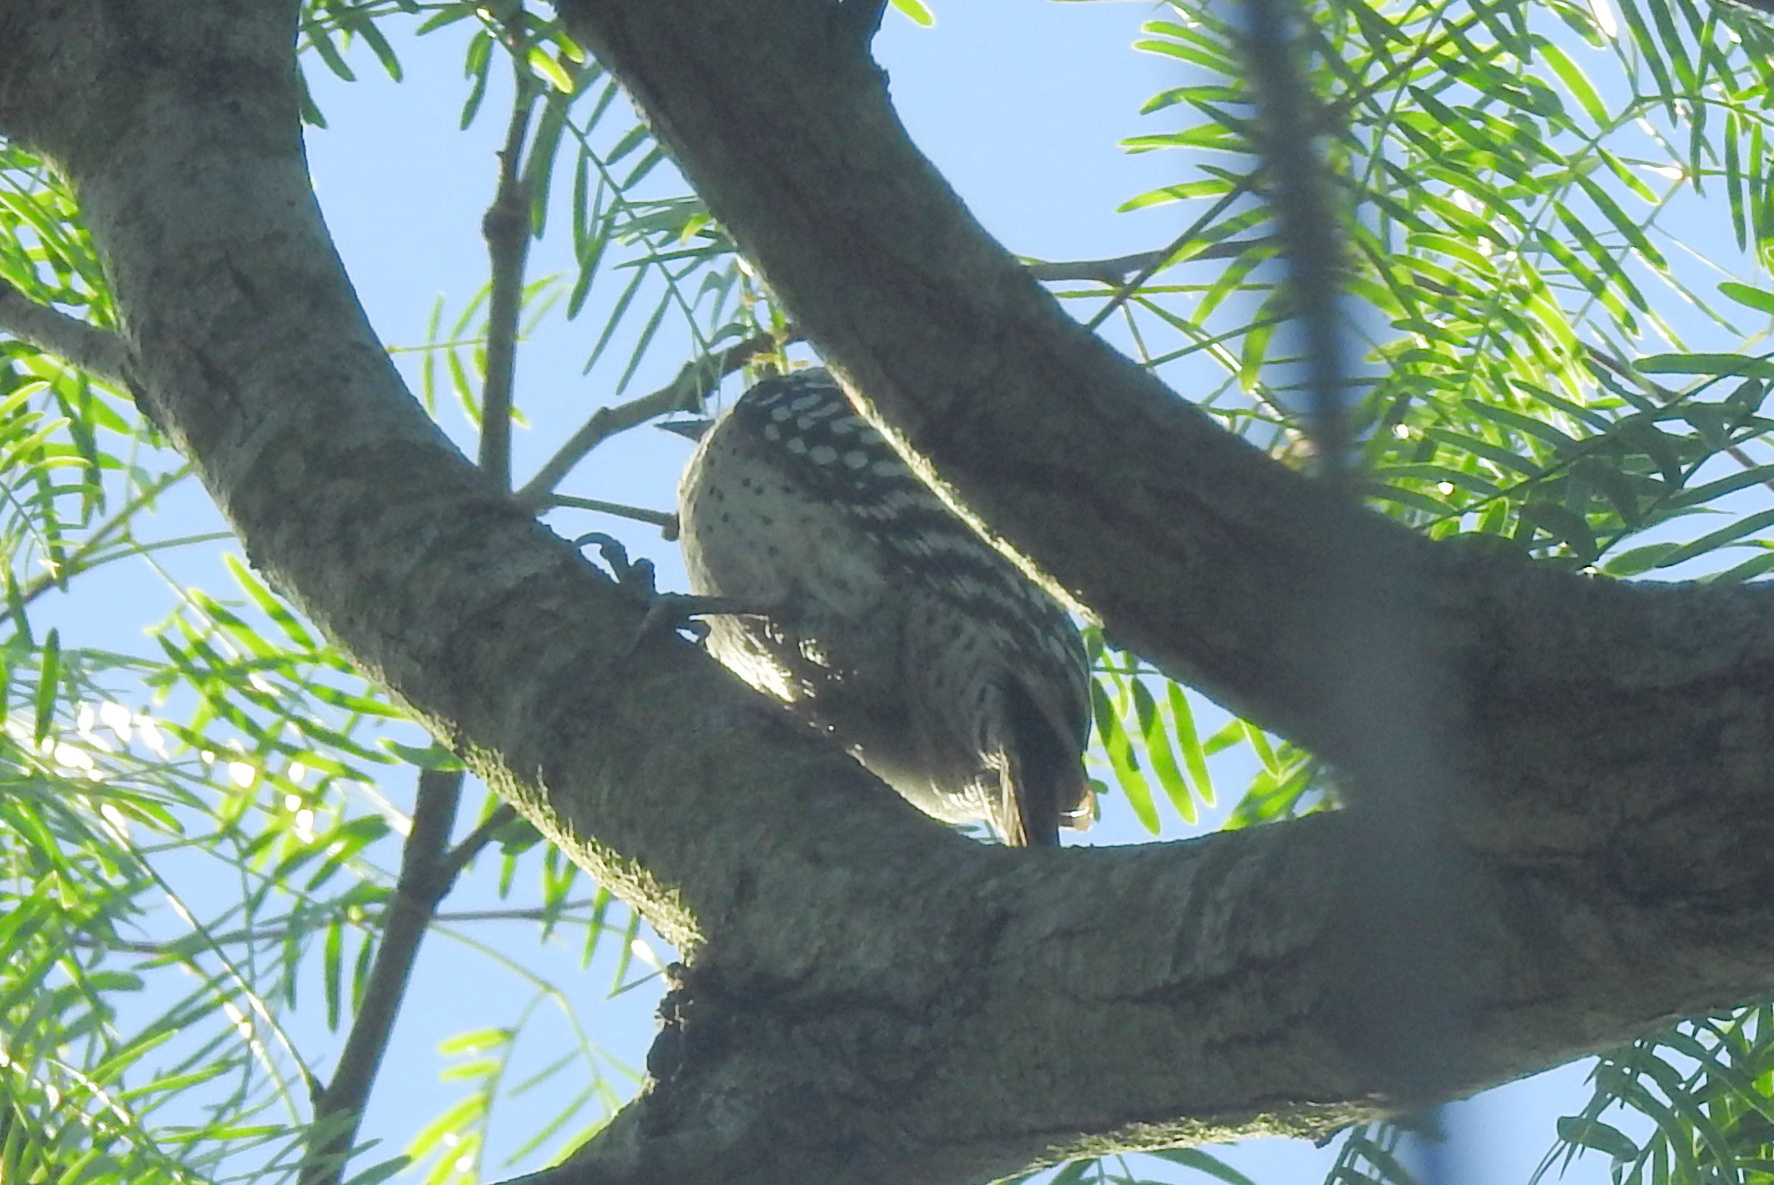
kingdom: Animalia
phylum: Chordata
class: Aves
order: Piciformes
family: Picidae
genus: Dryobates
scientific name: Dryobates scalaris
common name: Ladder-backed woodpecker
